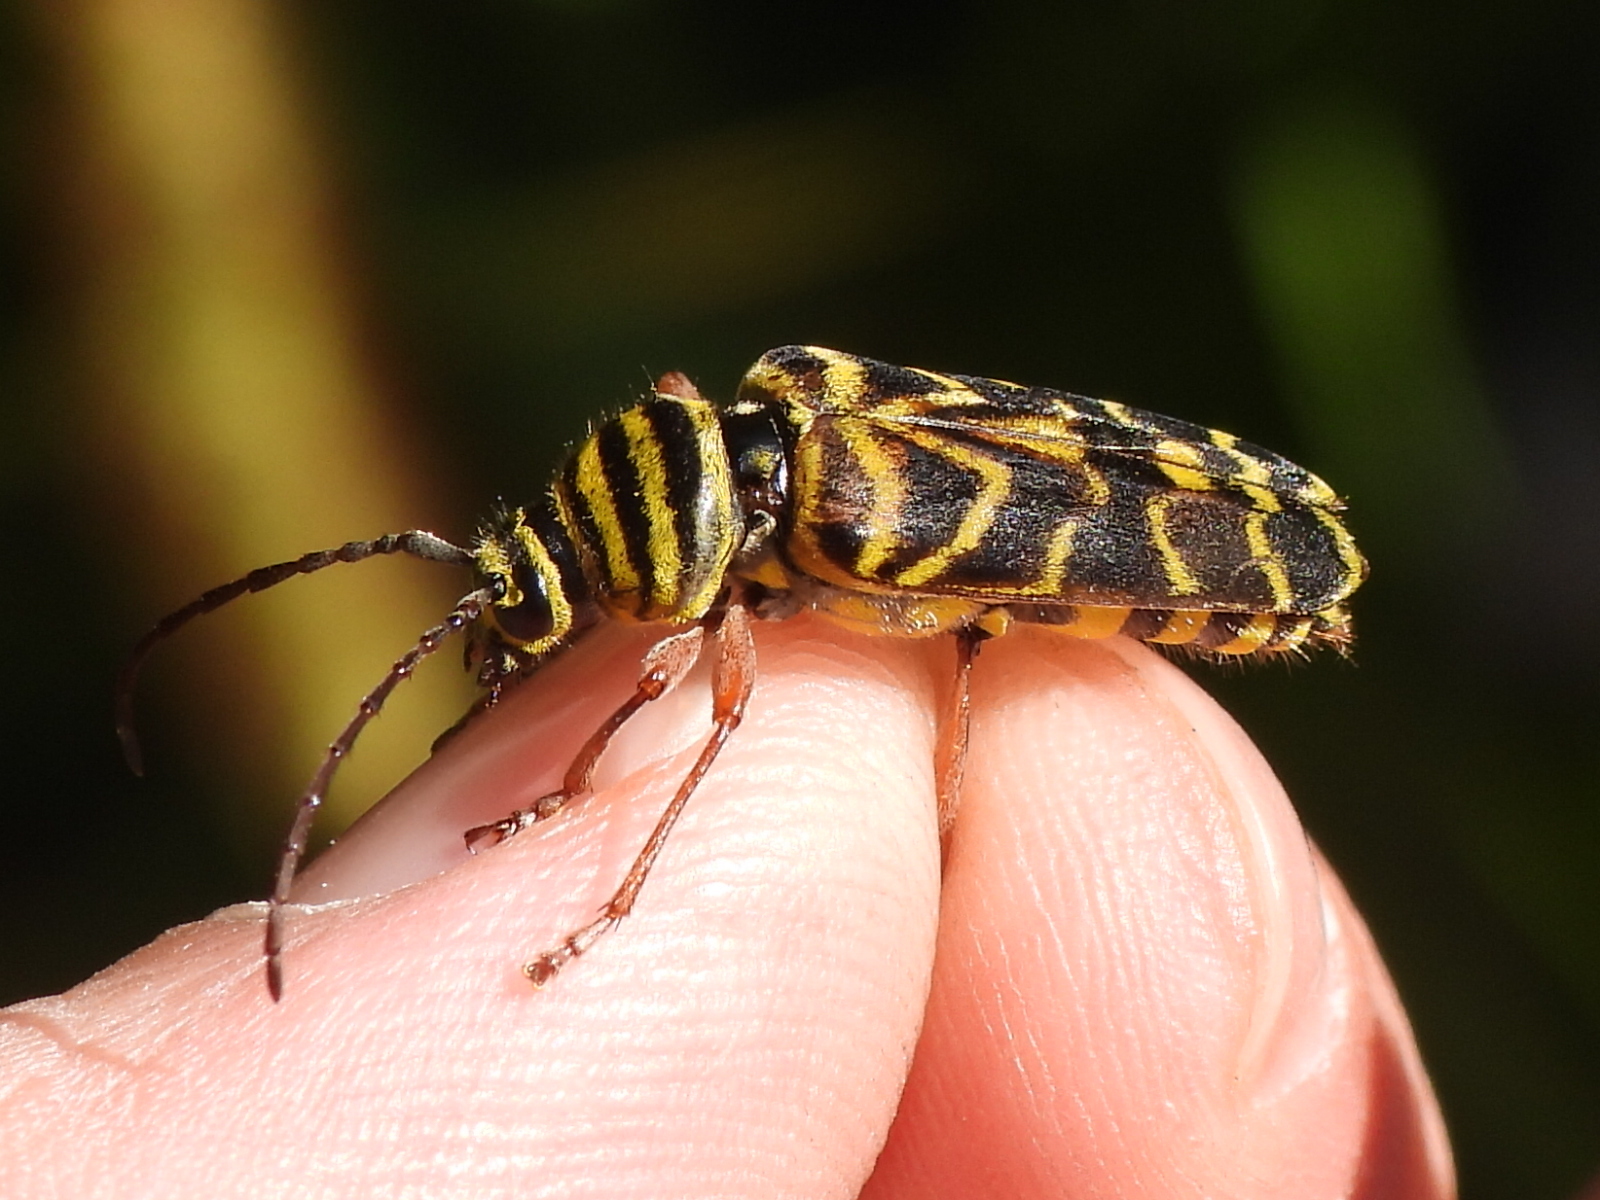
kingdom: Animalia
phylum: Arthropoda
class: Insecta
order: Coleoptera
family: Cerambycidae
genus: Megacyllene
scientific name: Megacyllene robiniae
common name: Locust borer
